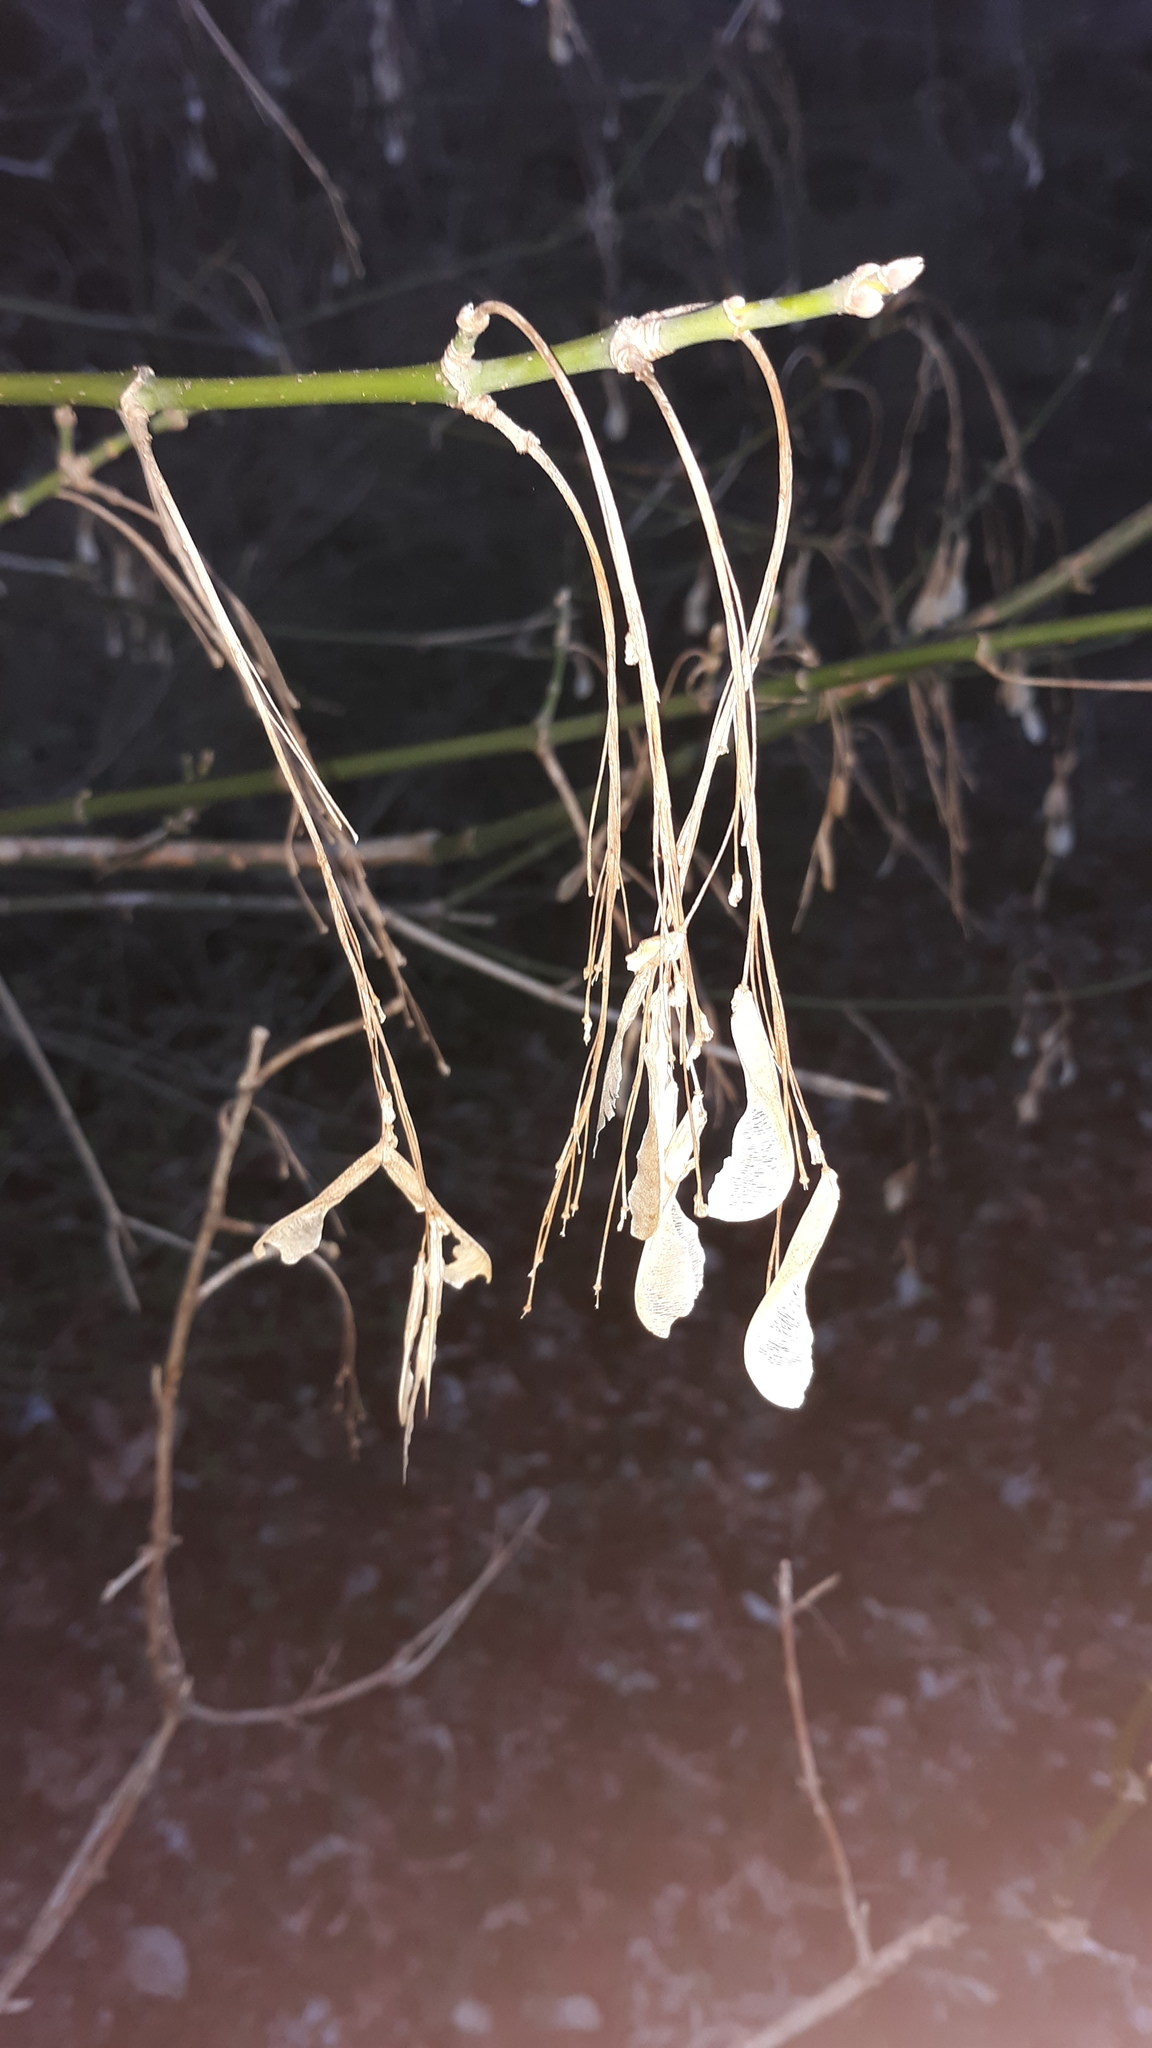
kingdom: Plantae
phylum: Tracheophyta
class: Magnoliopsida
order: Sapindales
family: Sapindaceae
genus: Acer
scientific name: Acer negundo
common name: Ashleaf maple
